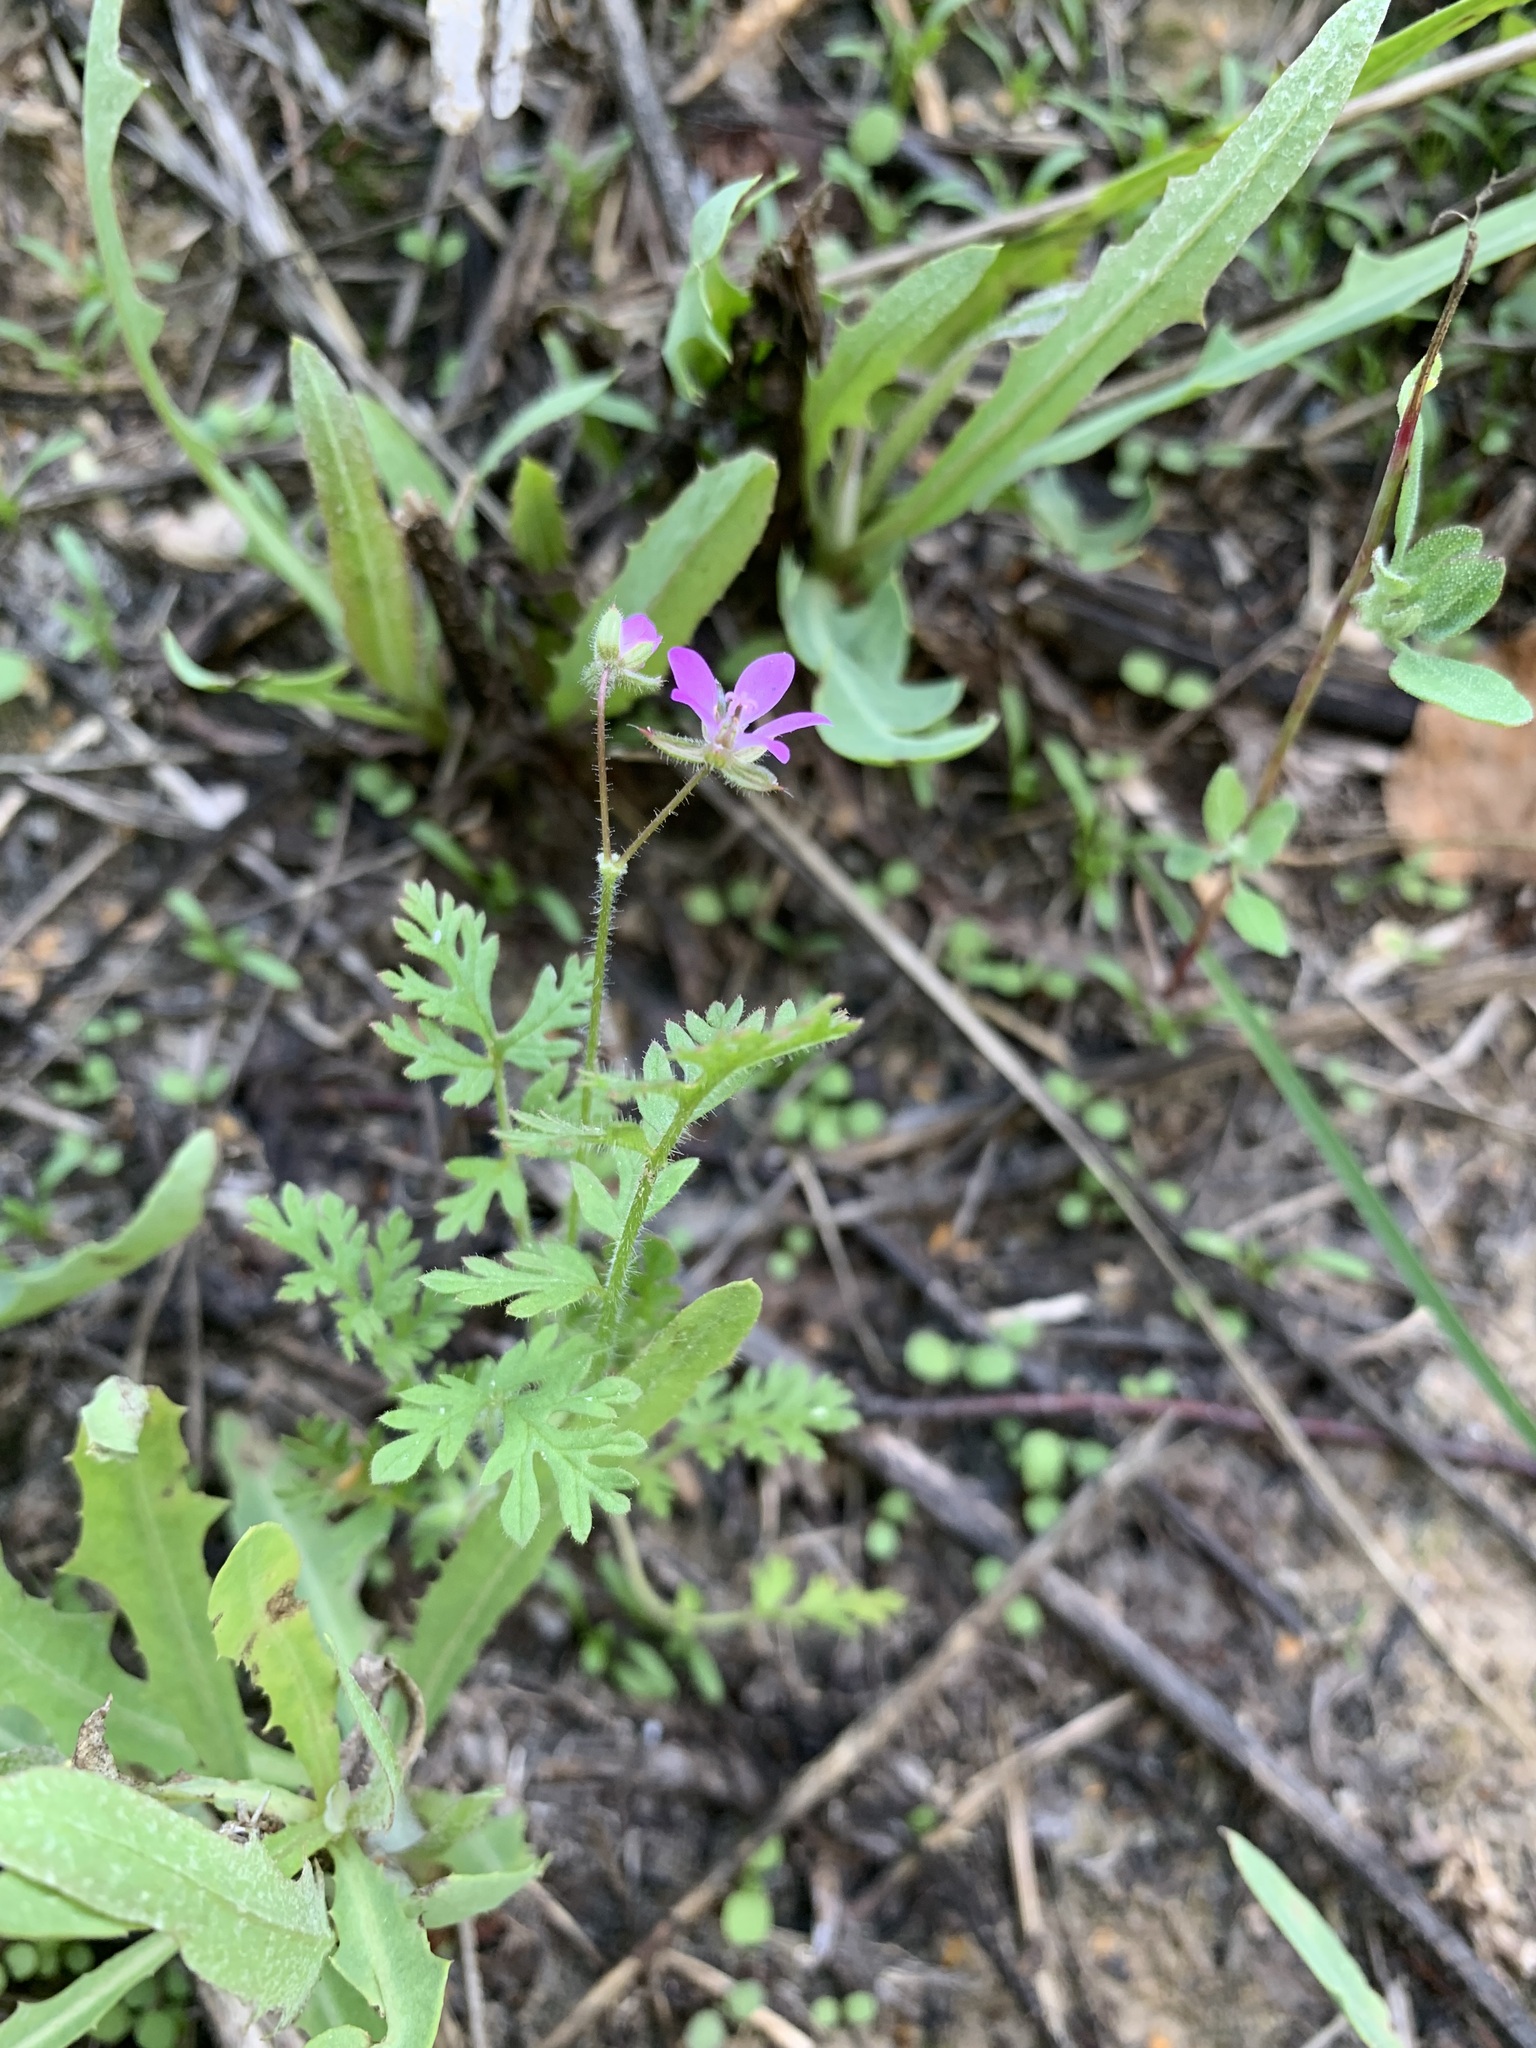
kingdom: Plantae
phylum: Tracheophyta
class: Magnoliopsida
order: Geraniales
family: Geraniaceae
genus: Erodium
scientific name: Erodium cicutarium
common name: Common stork's-bill
